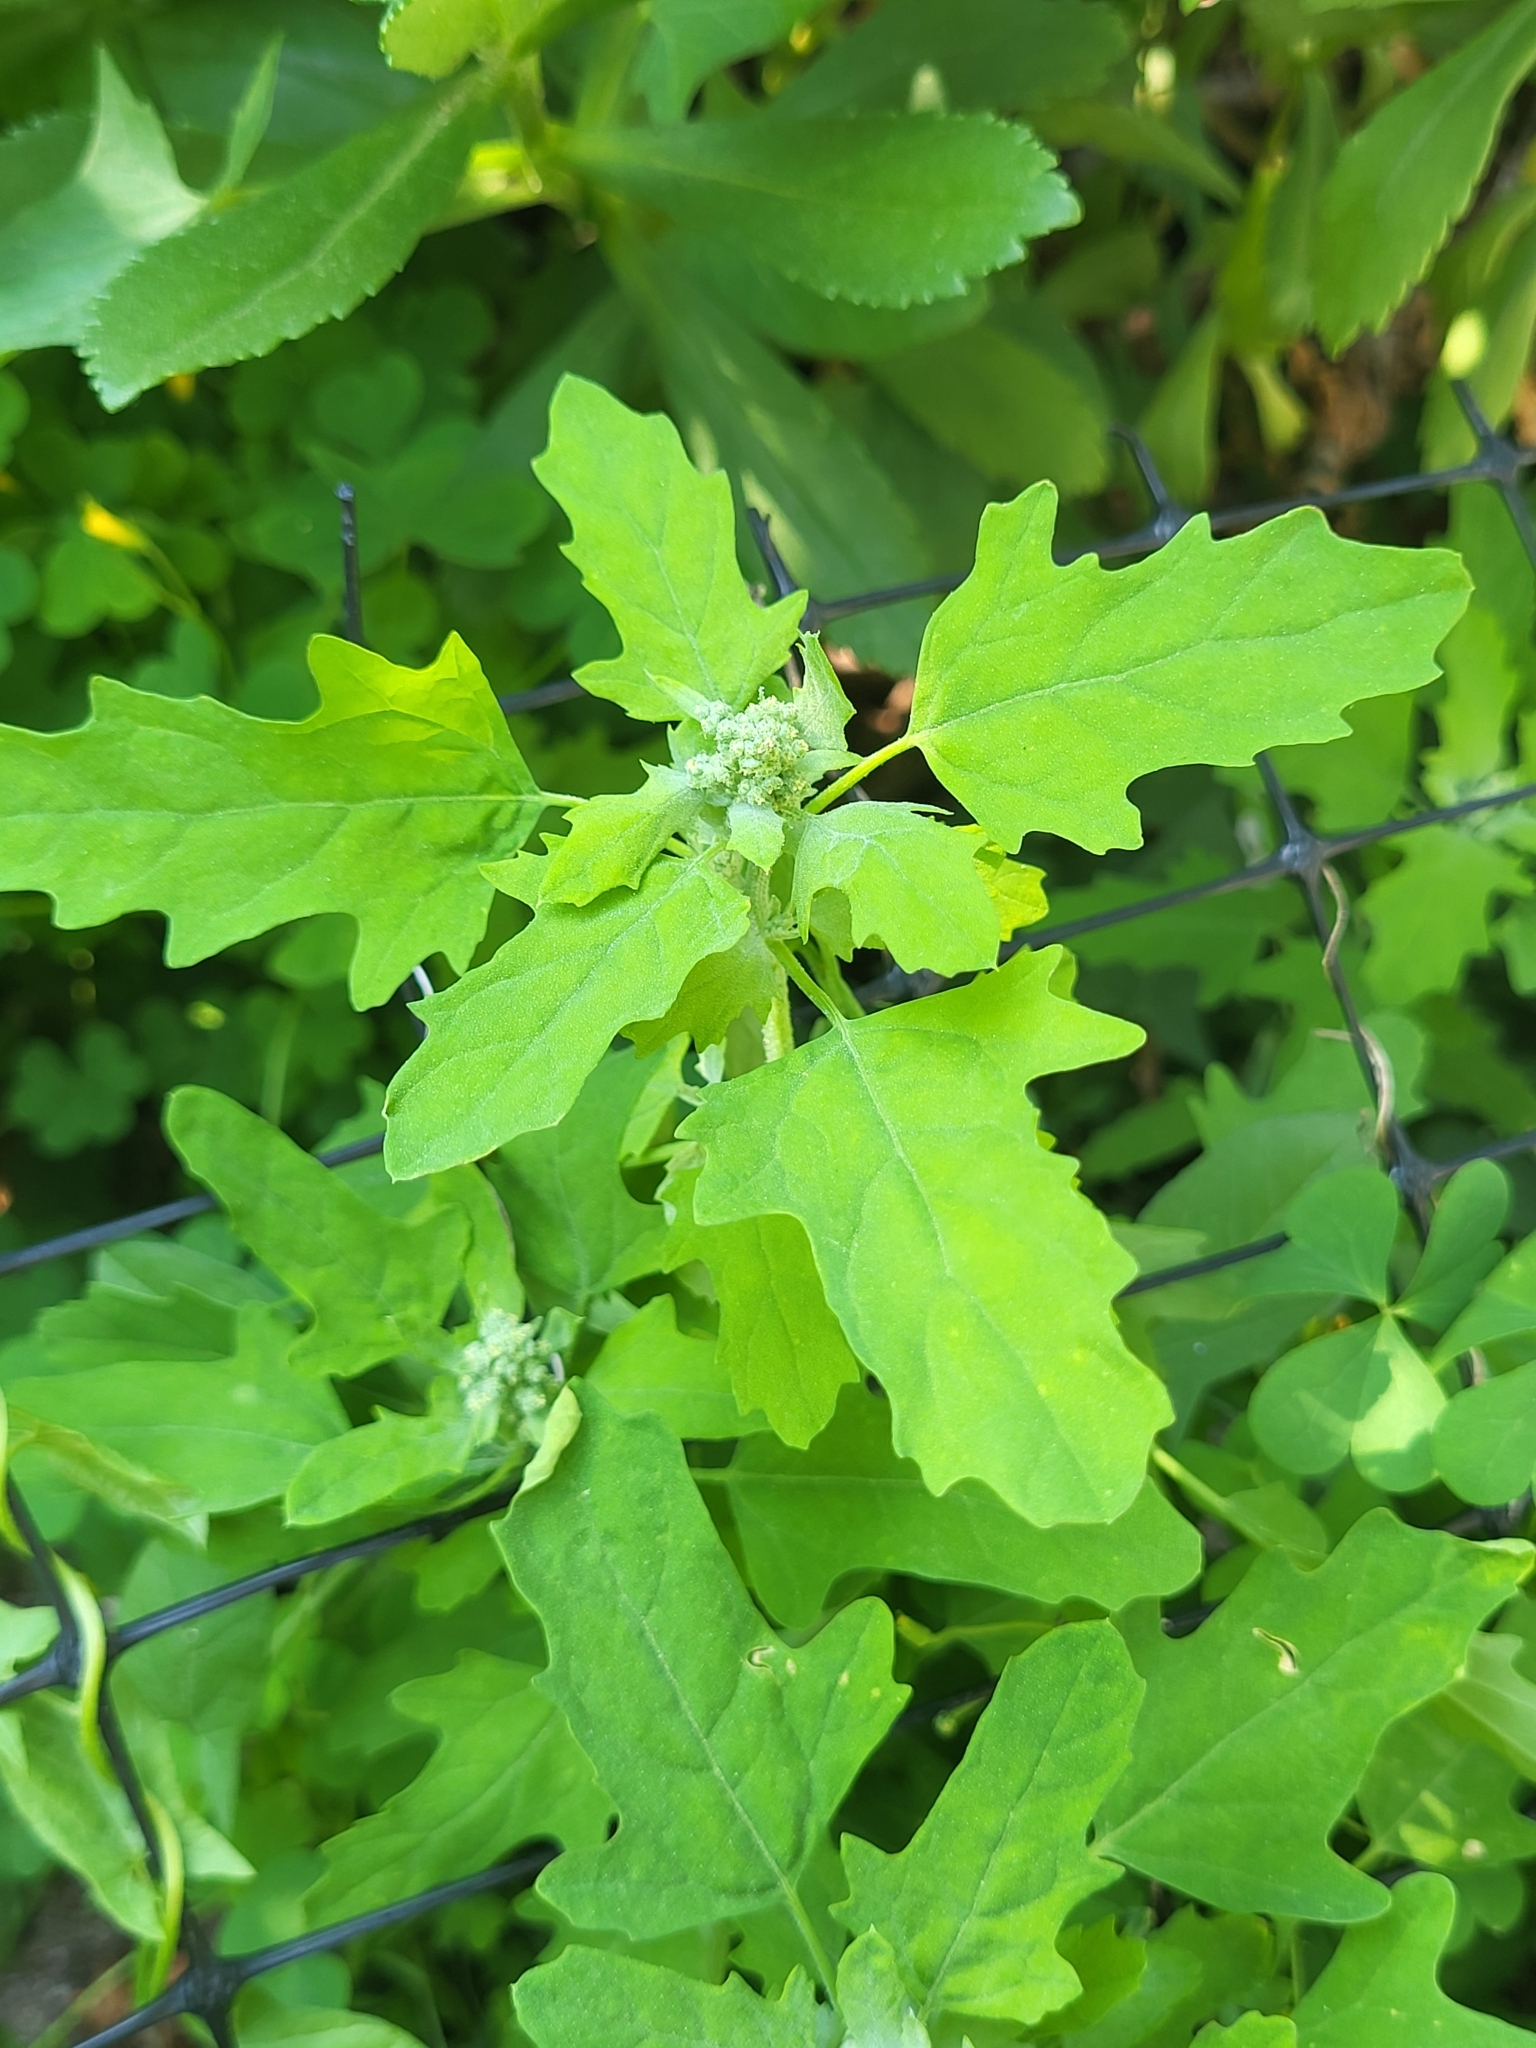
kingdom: Plantae
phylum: Tracheophyta
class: Magnoliopsida
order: Caryophyllales
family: Amaranthaceae
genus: Chenopodium
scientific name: Chenopodium ficifolium
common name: Fig-leaved goosefoot
